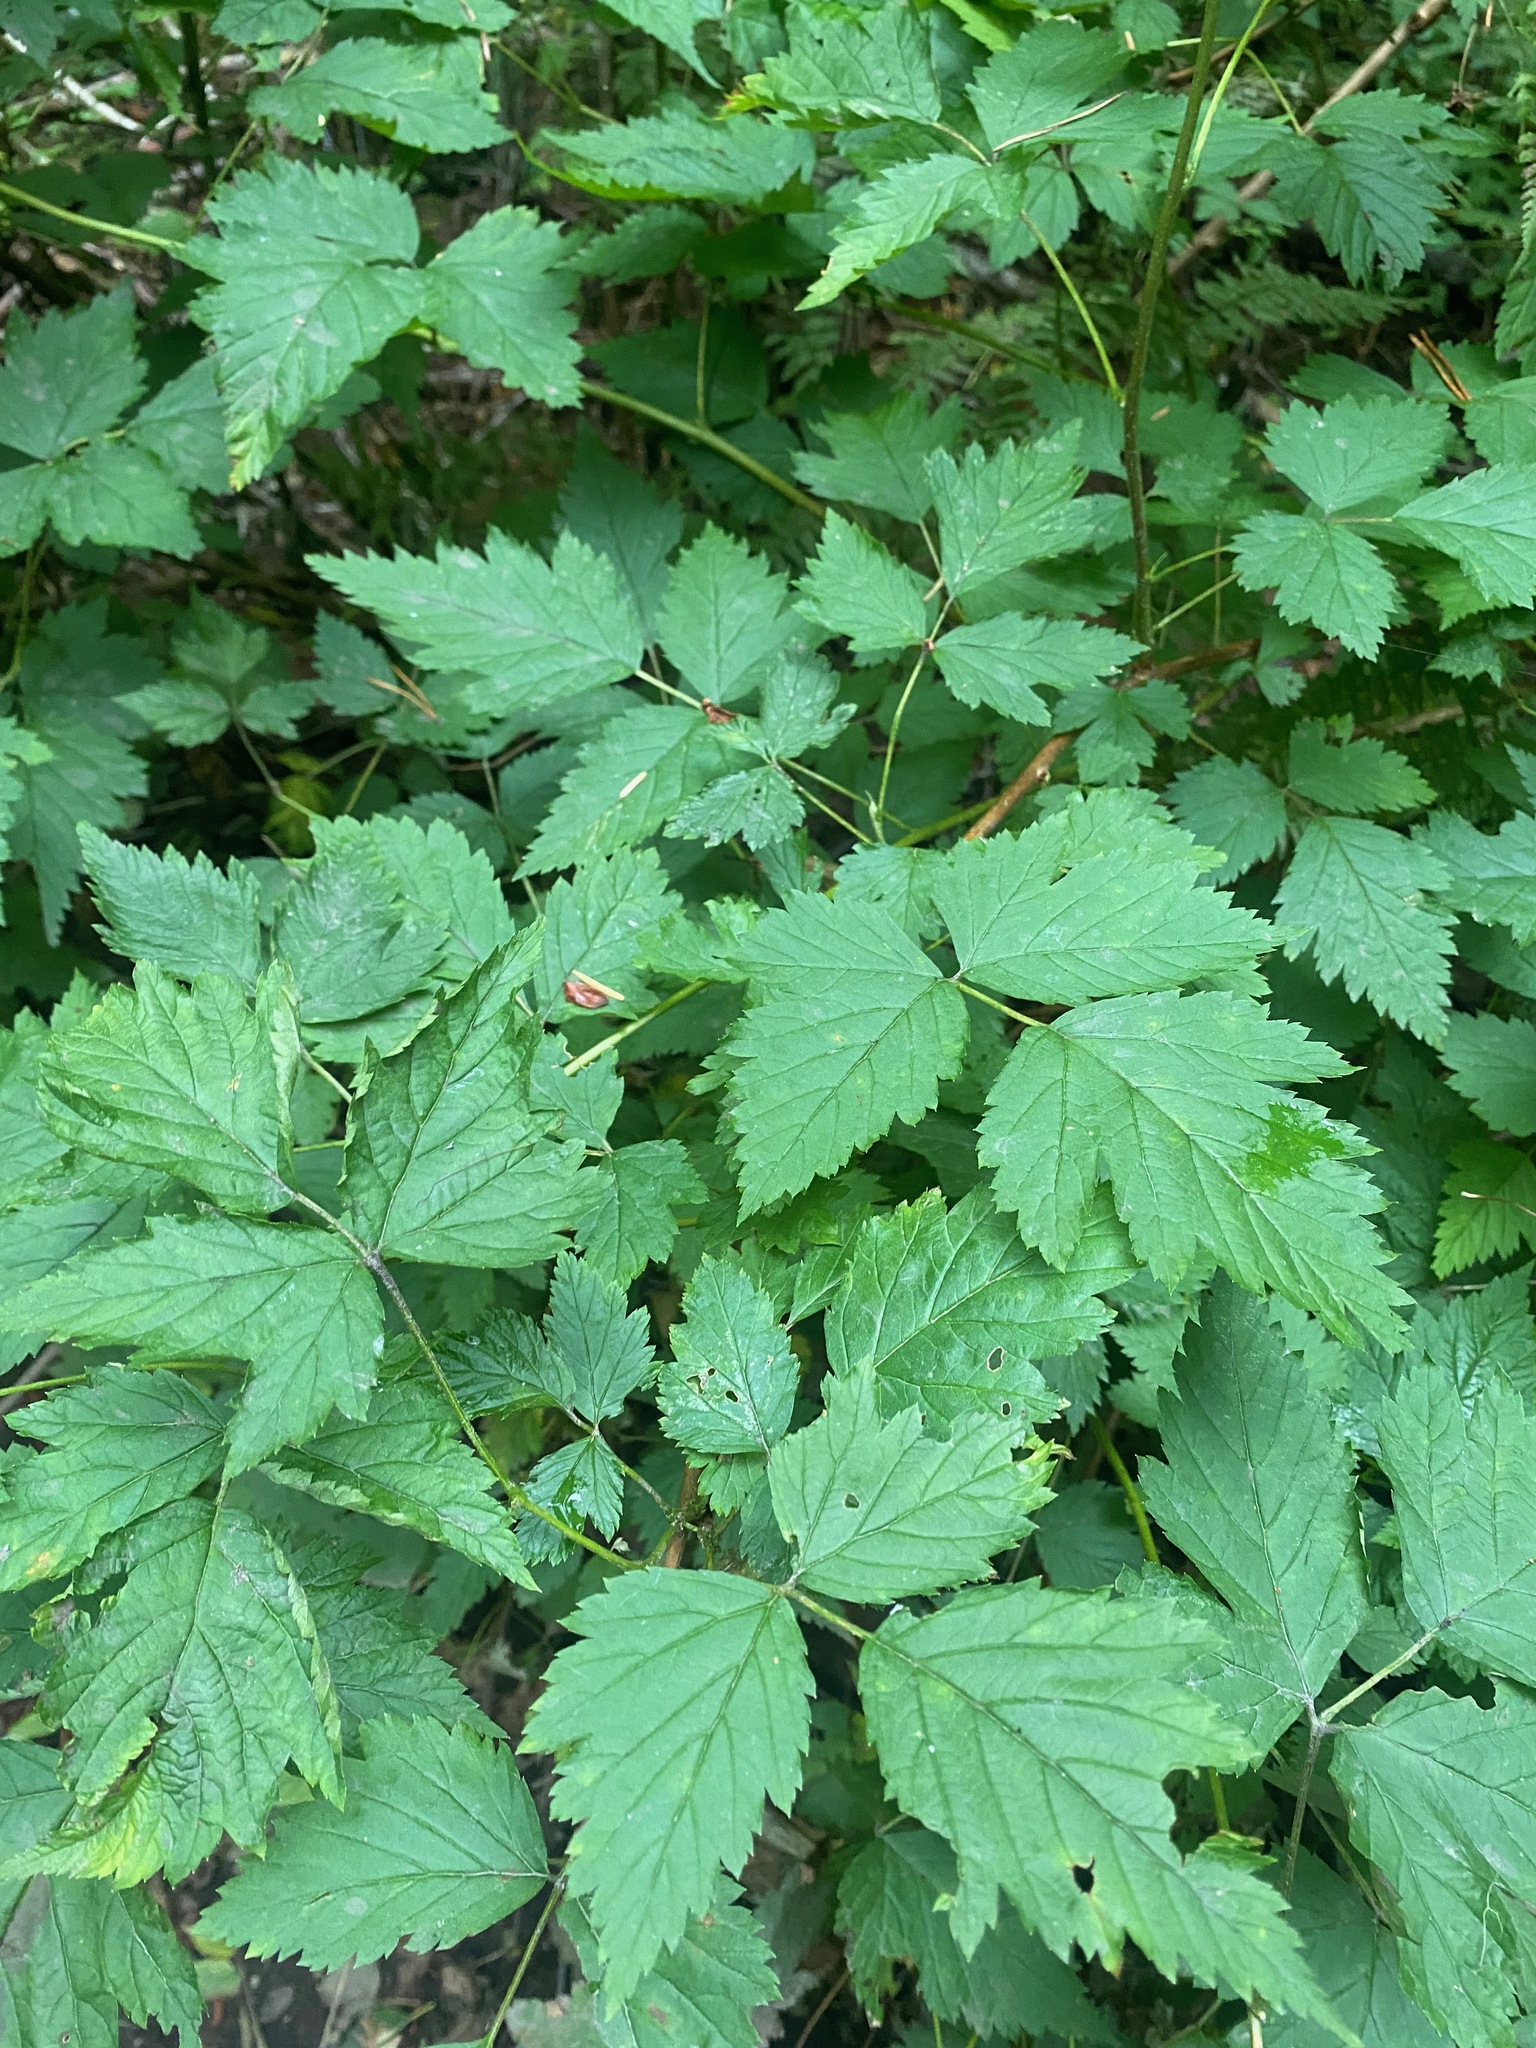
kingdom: Plantae
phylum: Tracheophyta
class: Magnoliopsida
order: Rosales
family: Rosaceae
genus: Rubus
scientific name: Rubus spectabilis
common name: Salmonberry
